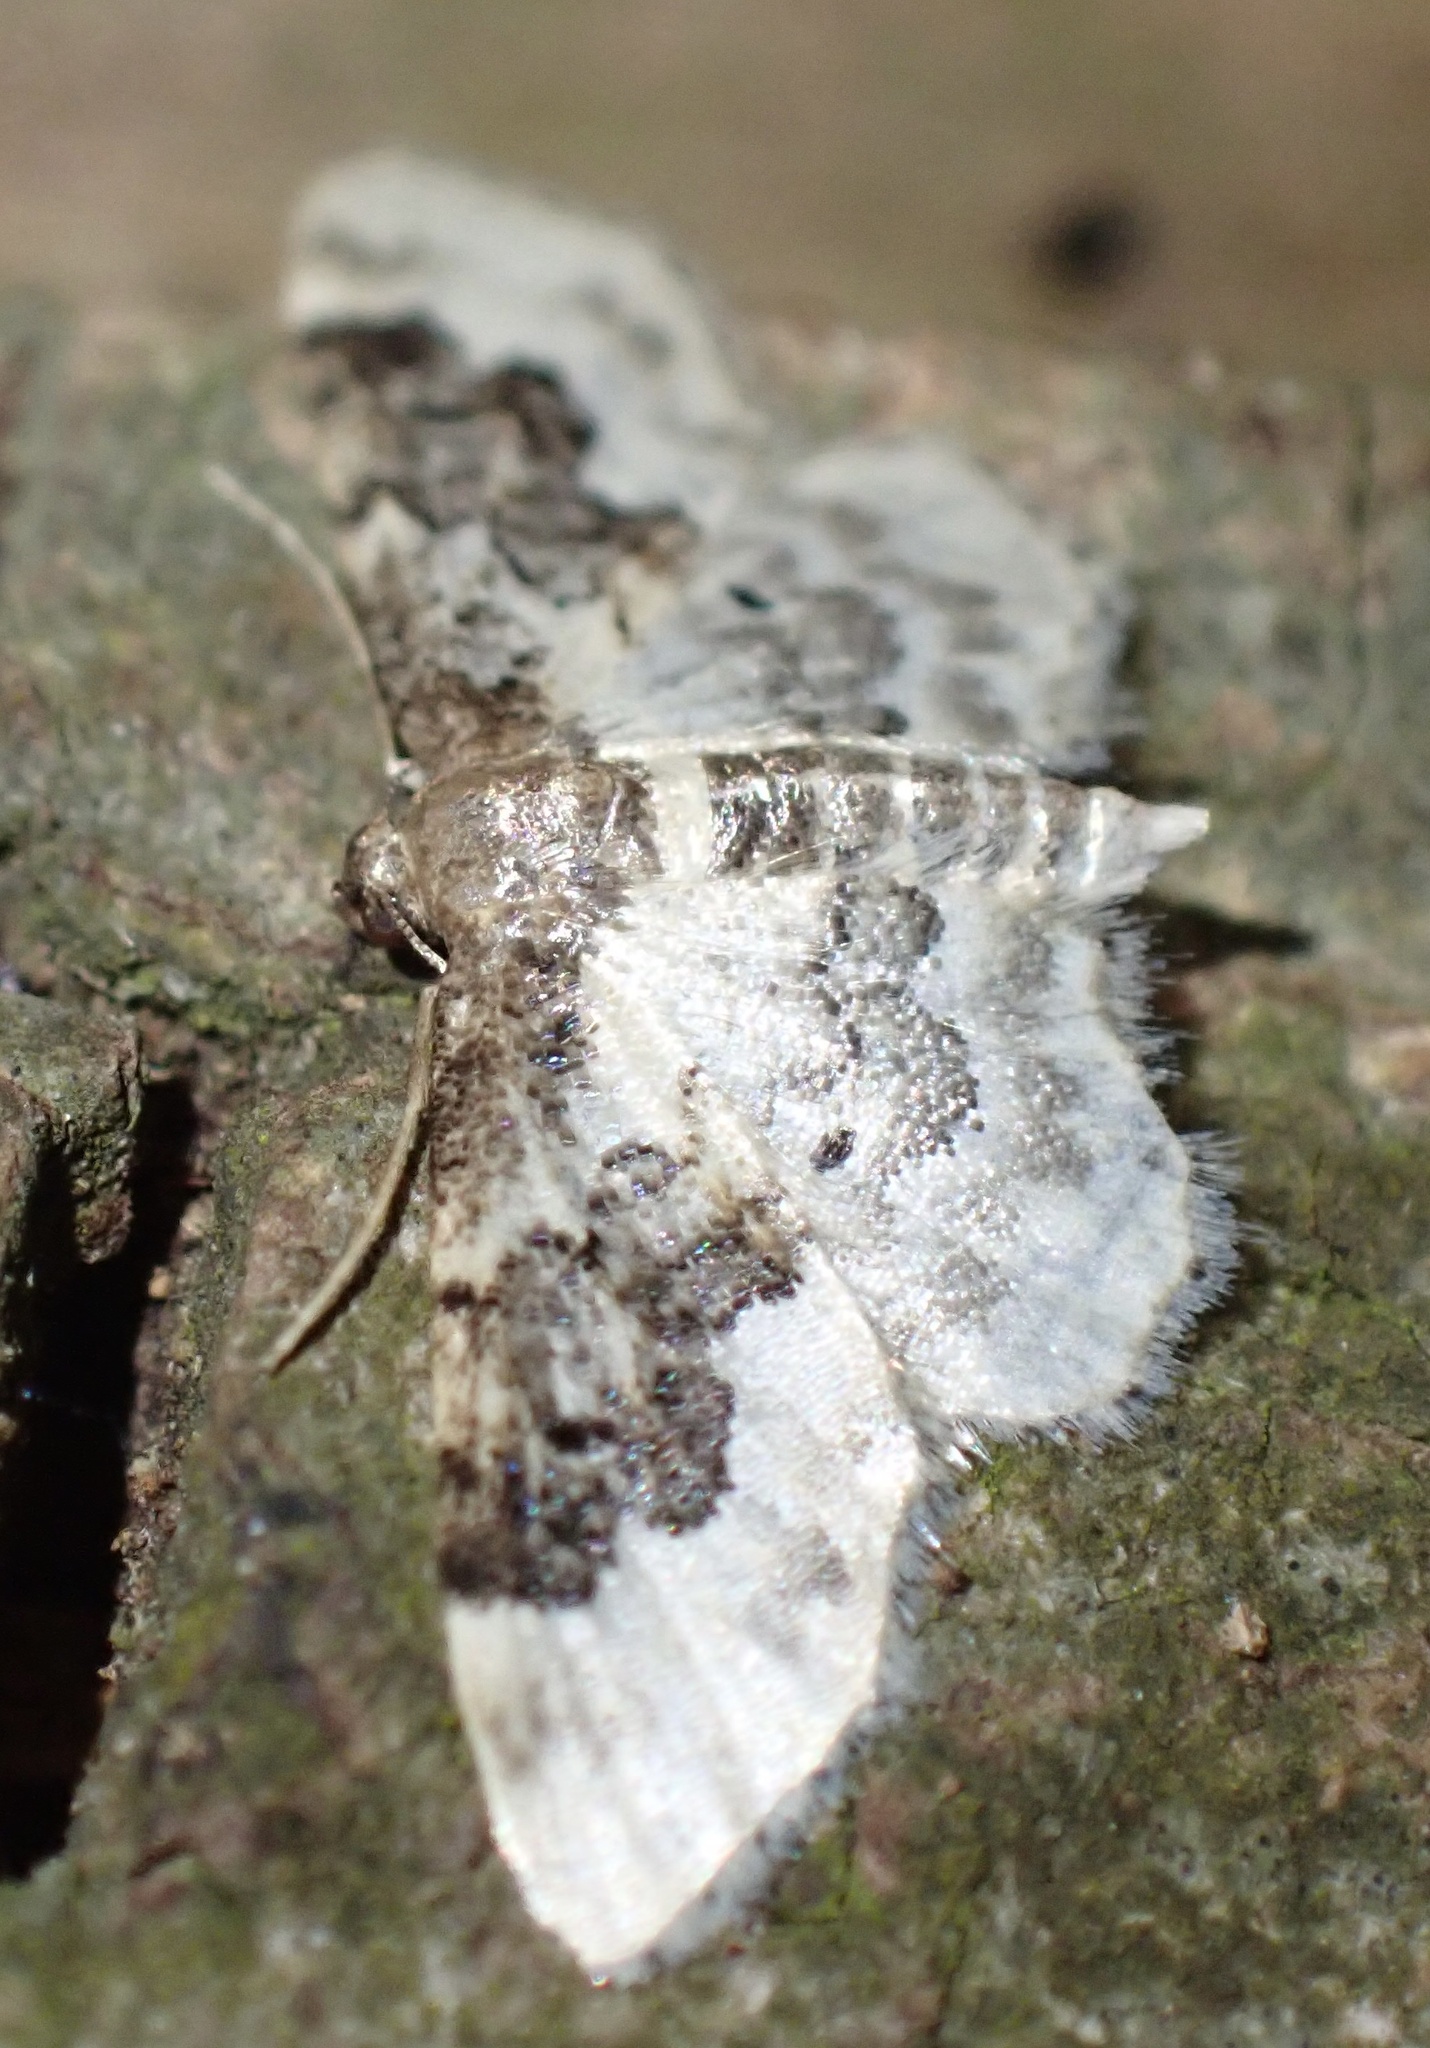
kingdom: Animalia
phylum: Arthropoda
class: Insecta
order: Lepidoptera
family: Geometridae
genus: Idaea
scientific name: Idaea rusticata
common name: Least carpet
